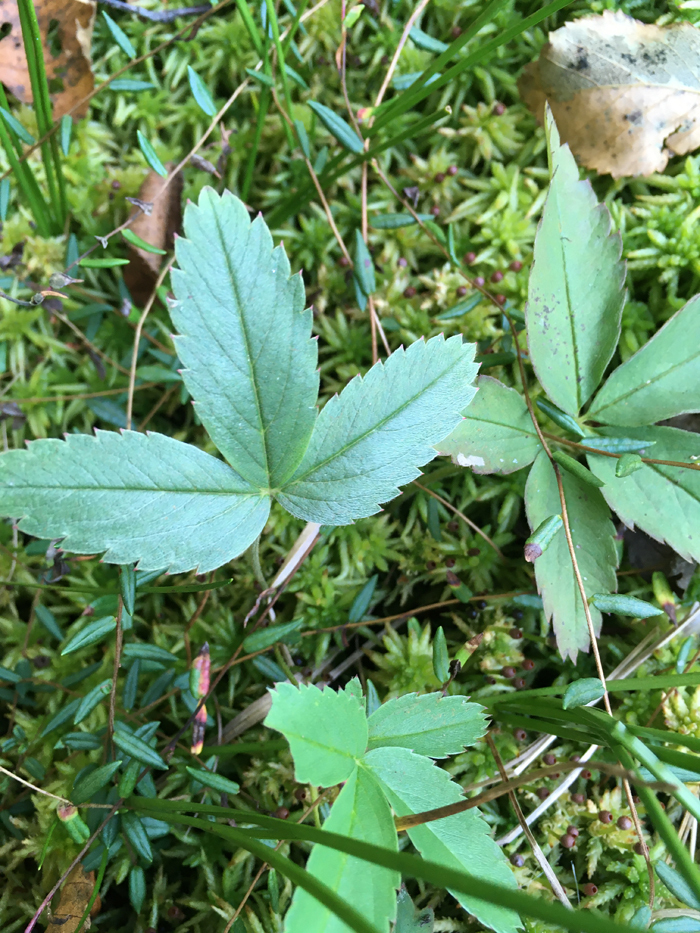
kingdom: Plantae
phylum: Tracheophyta
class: Magnoliopsida
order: Rosales
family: Rosaceae
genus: Comarum
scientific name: Comarum palustre
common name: Marsh cinquefoil
